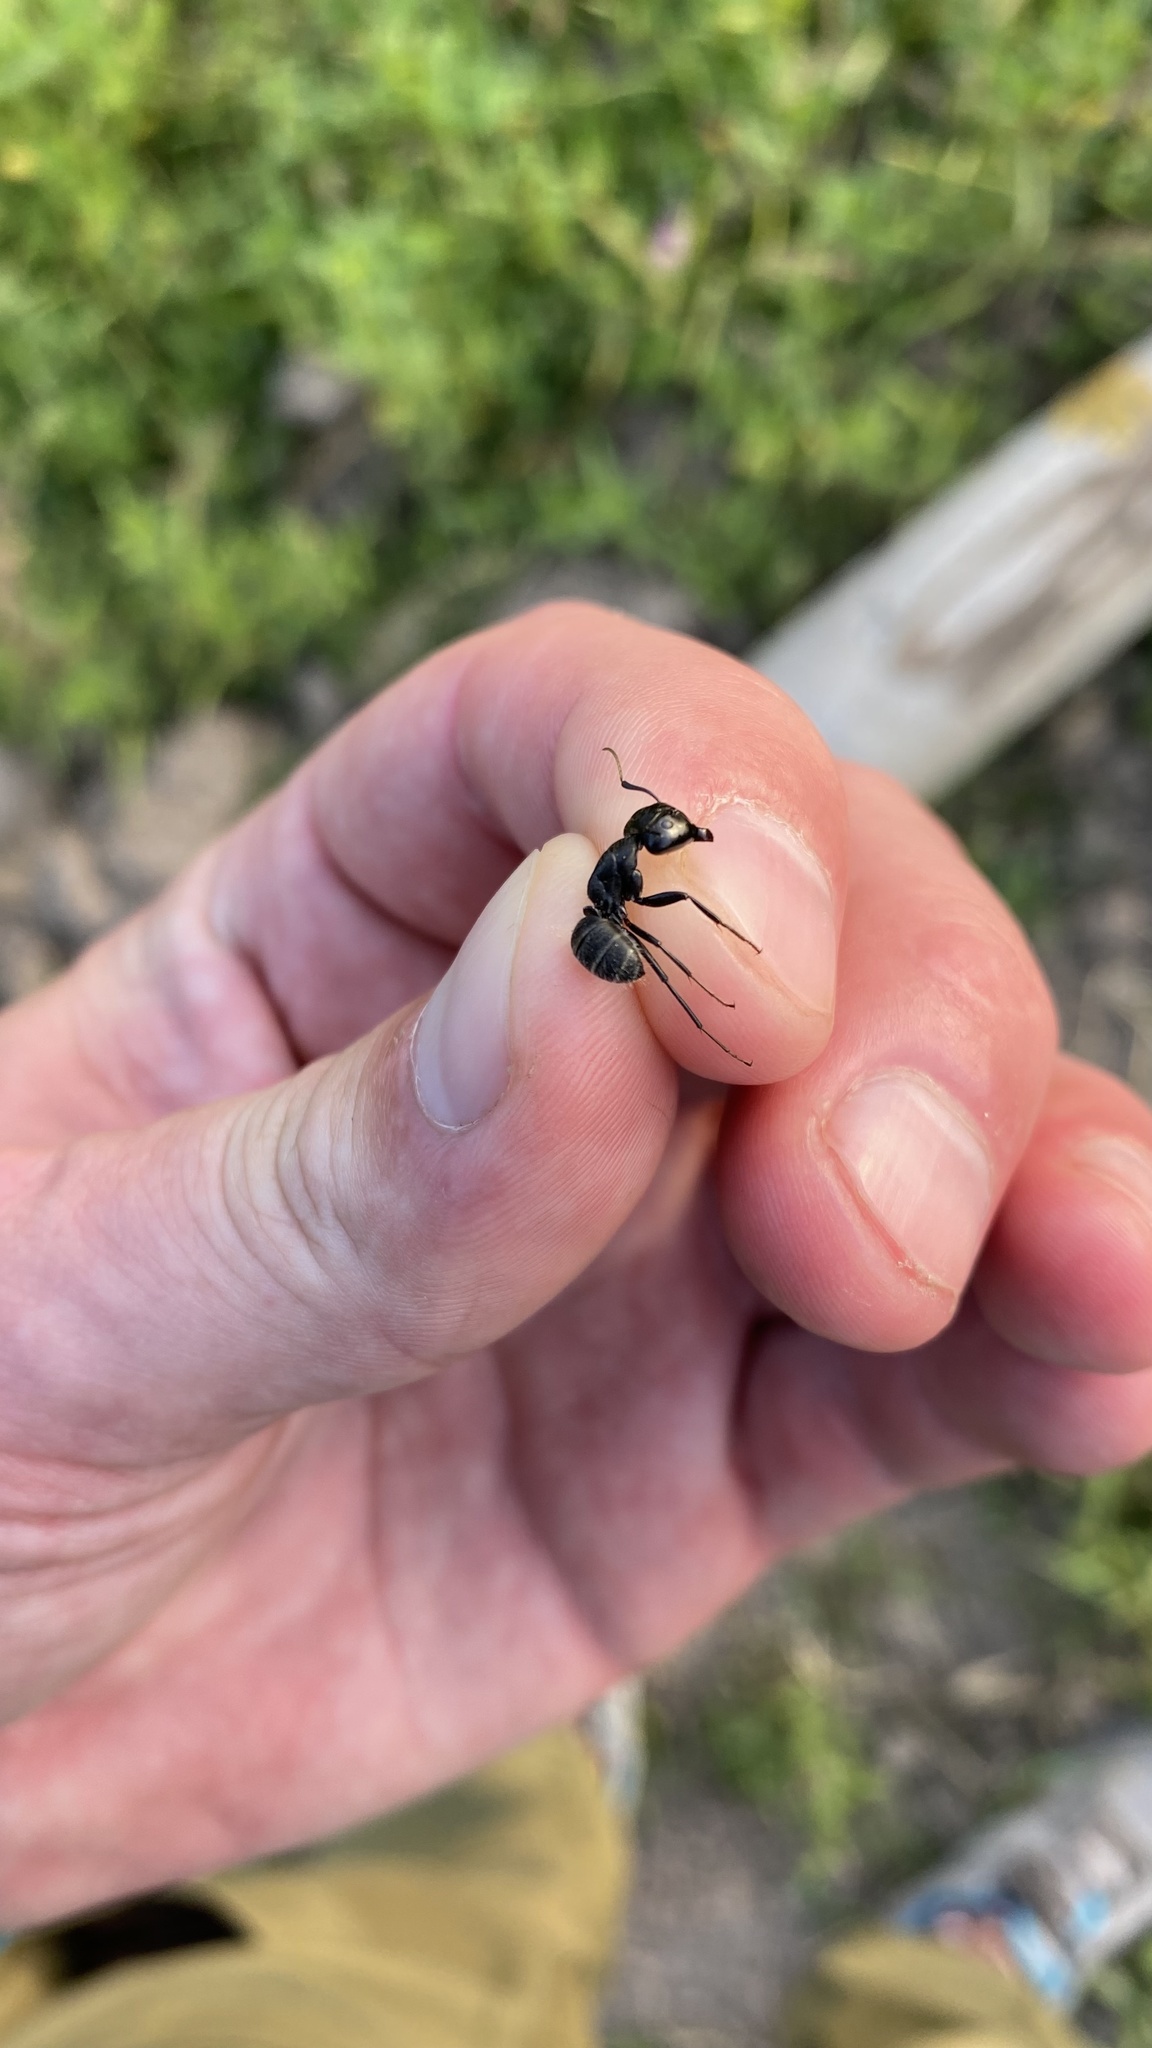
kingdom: Animalia
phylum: Arthropoda
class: Insecta
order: Hymenoptera
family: Formicidae
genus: Camponotus
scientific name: Camponotus vagus
